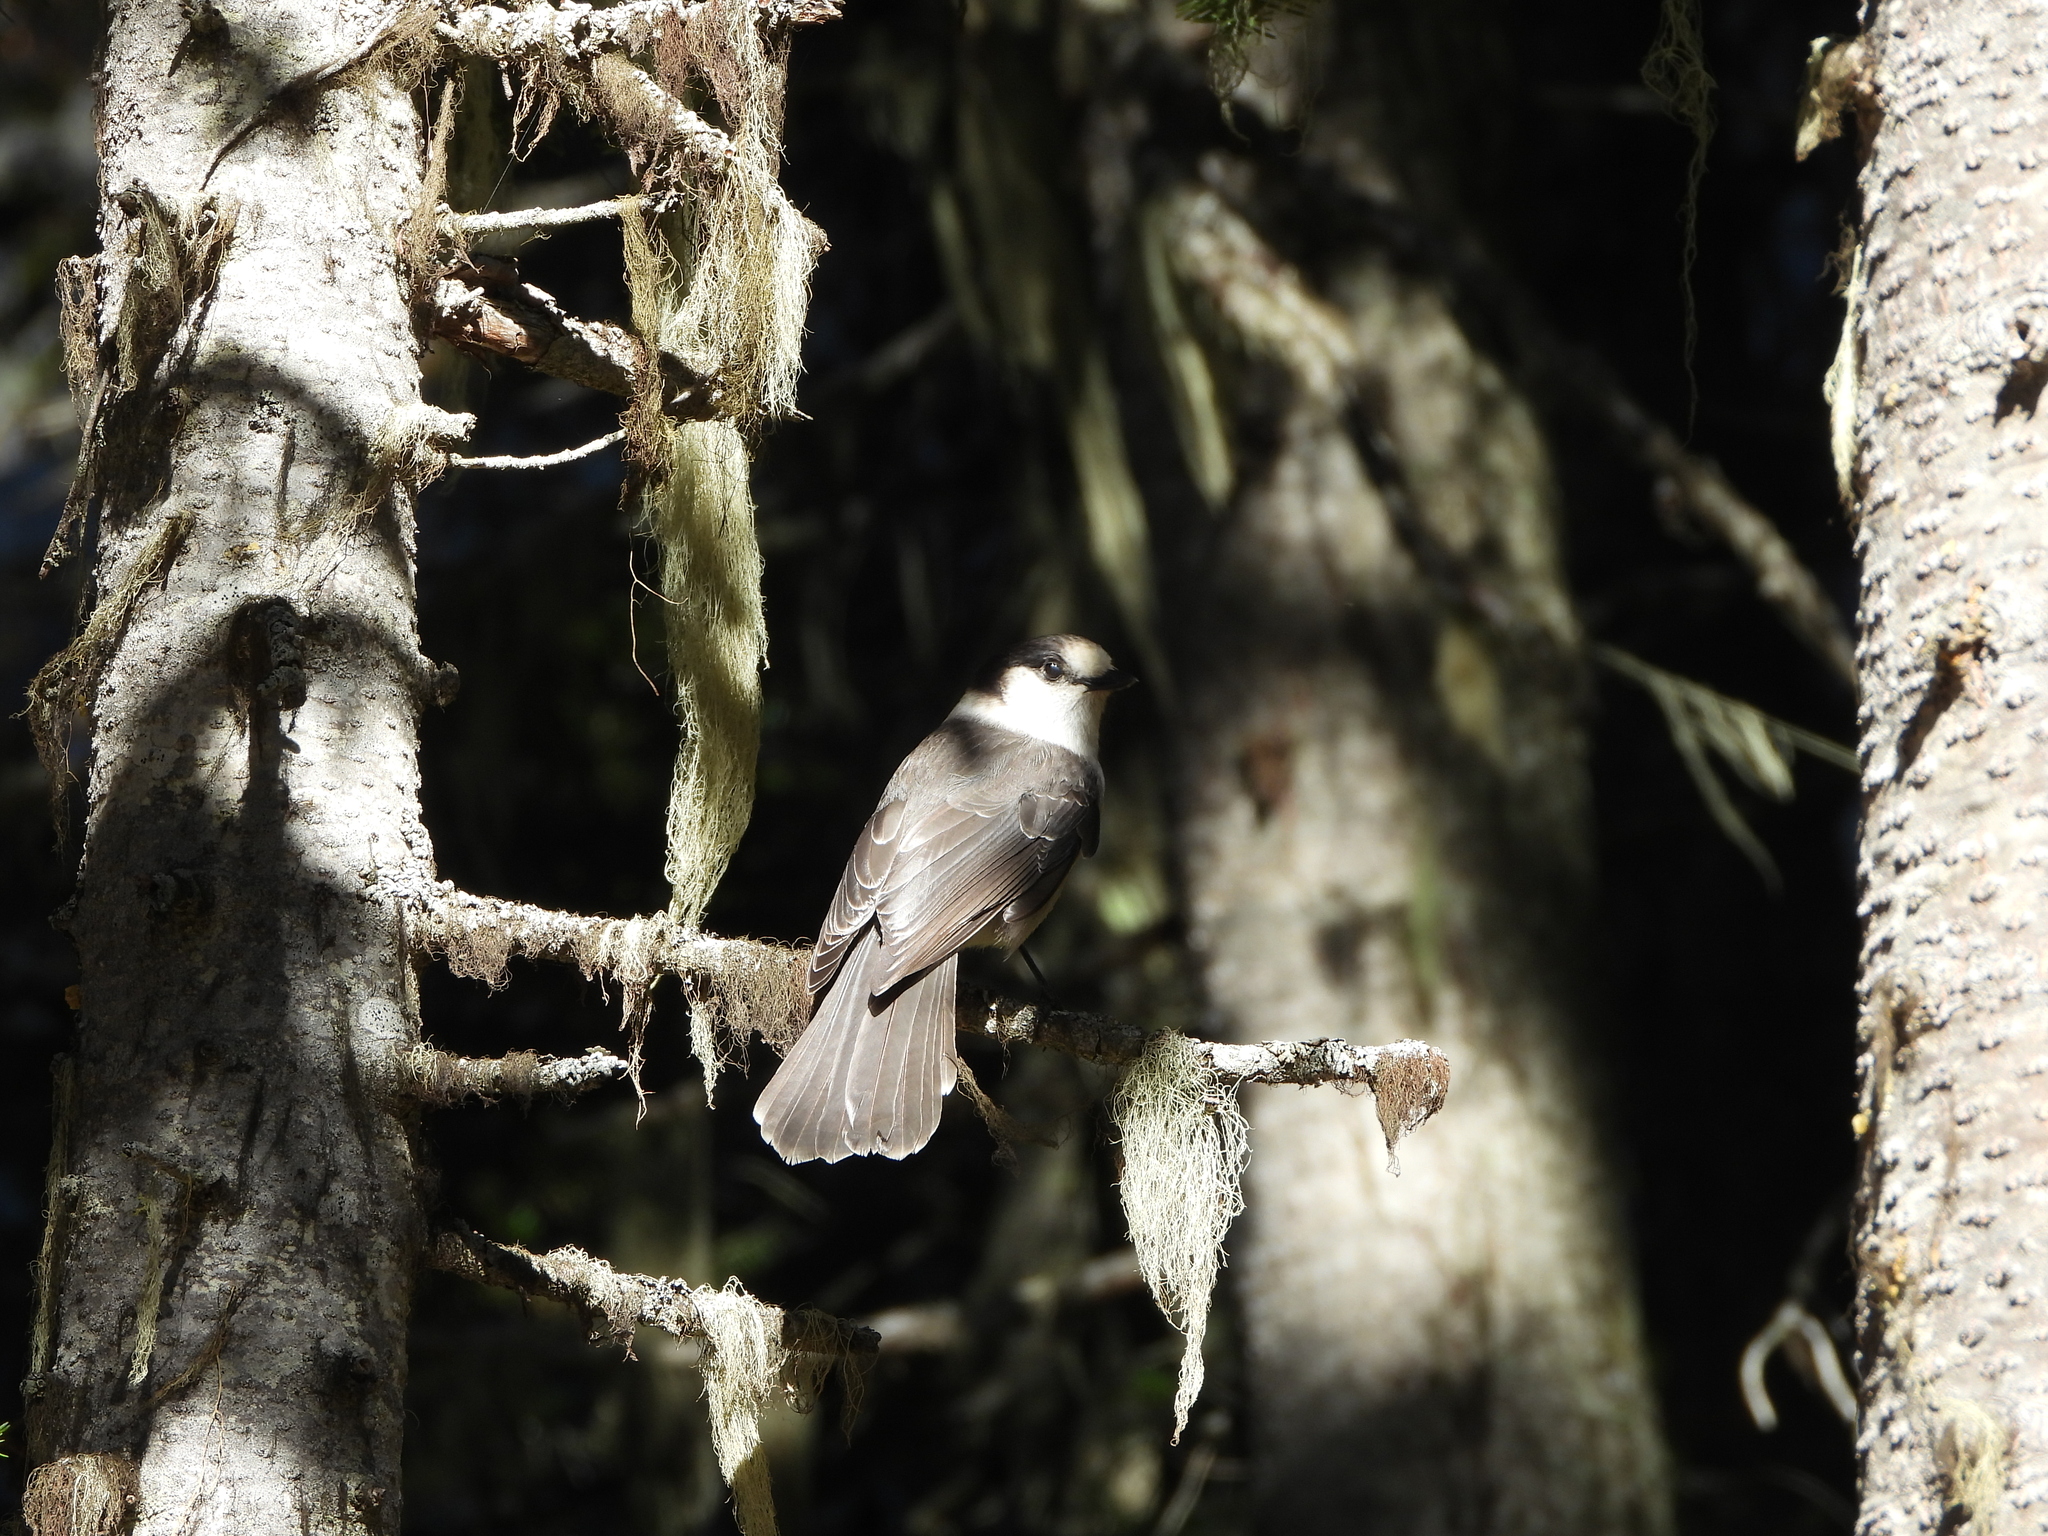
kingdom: Animalia
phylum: Chordata
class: Aves
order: Passeriformes
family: Corvidae
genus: Perisoreus
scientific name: Perisoreus canadensis
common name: Gray jay
